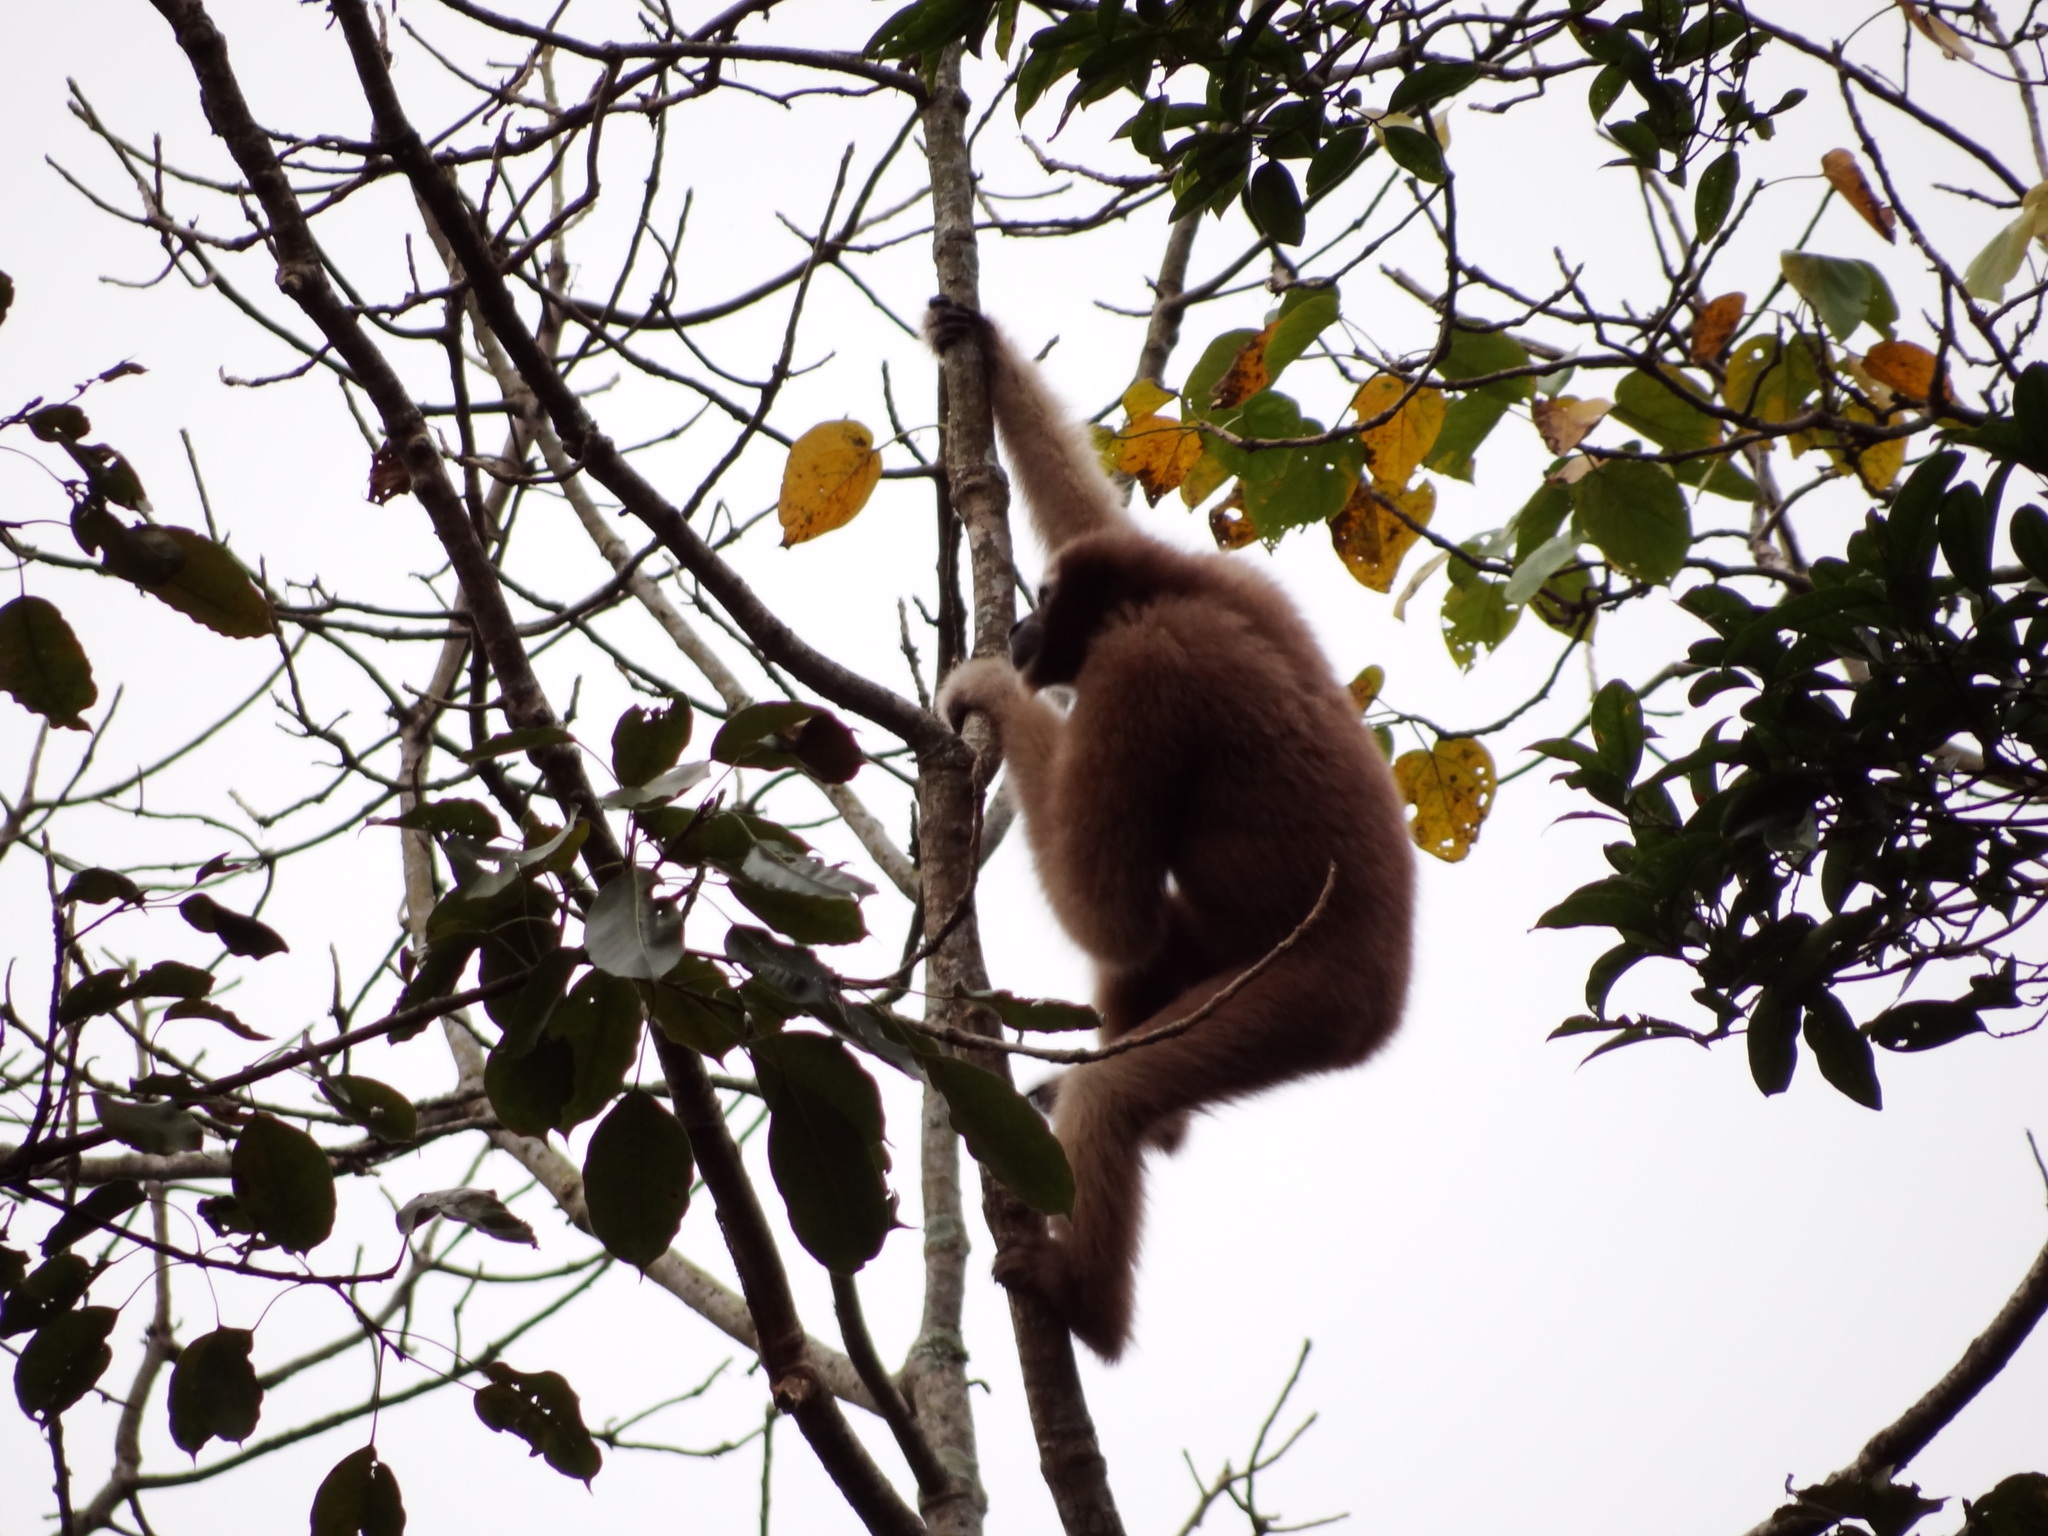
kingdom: Animalia
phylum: Chordata
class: Mammalia
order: Primates
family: Hylobatidae
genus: Hoolock
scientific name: Hoolock hoolock
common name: Western hoolock gibbon
